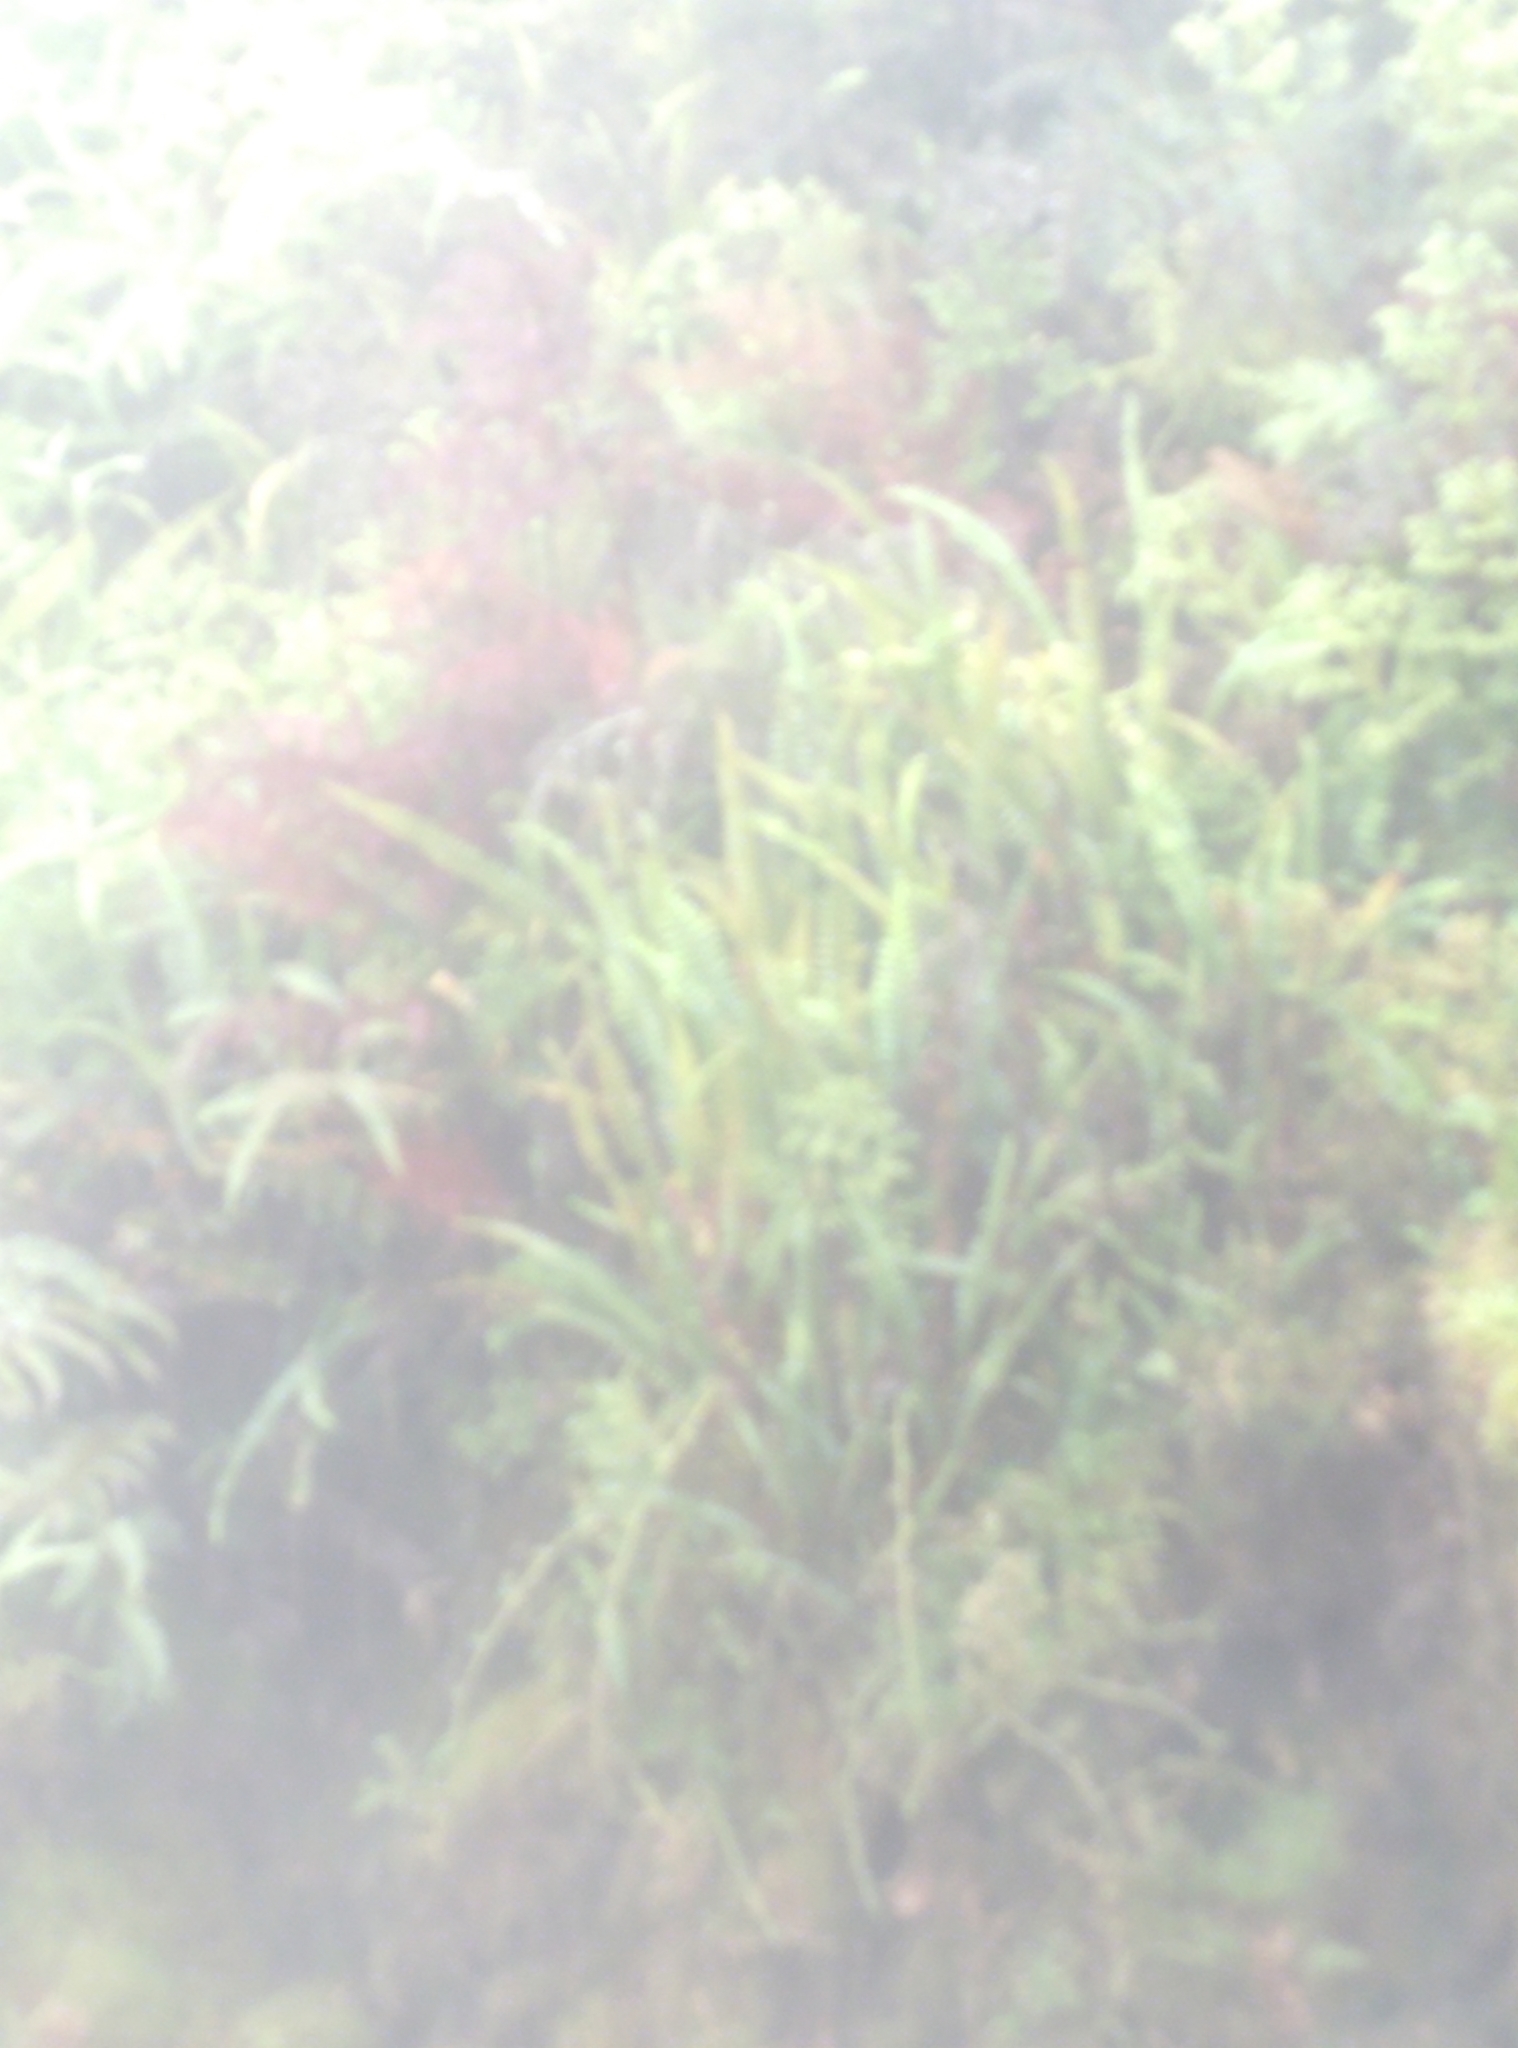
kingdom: Plantae
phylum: Tracheophyta
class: Polypodiopsida
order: Polypodiales
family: Nephrolepidaceae
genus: Nephrolepis
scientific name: Nephrolepis flexuosa
